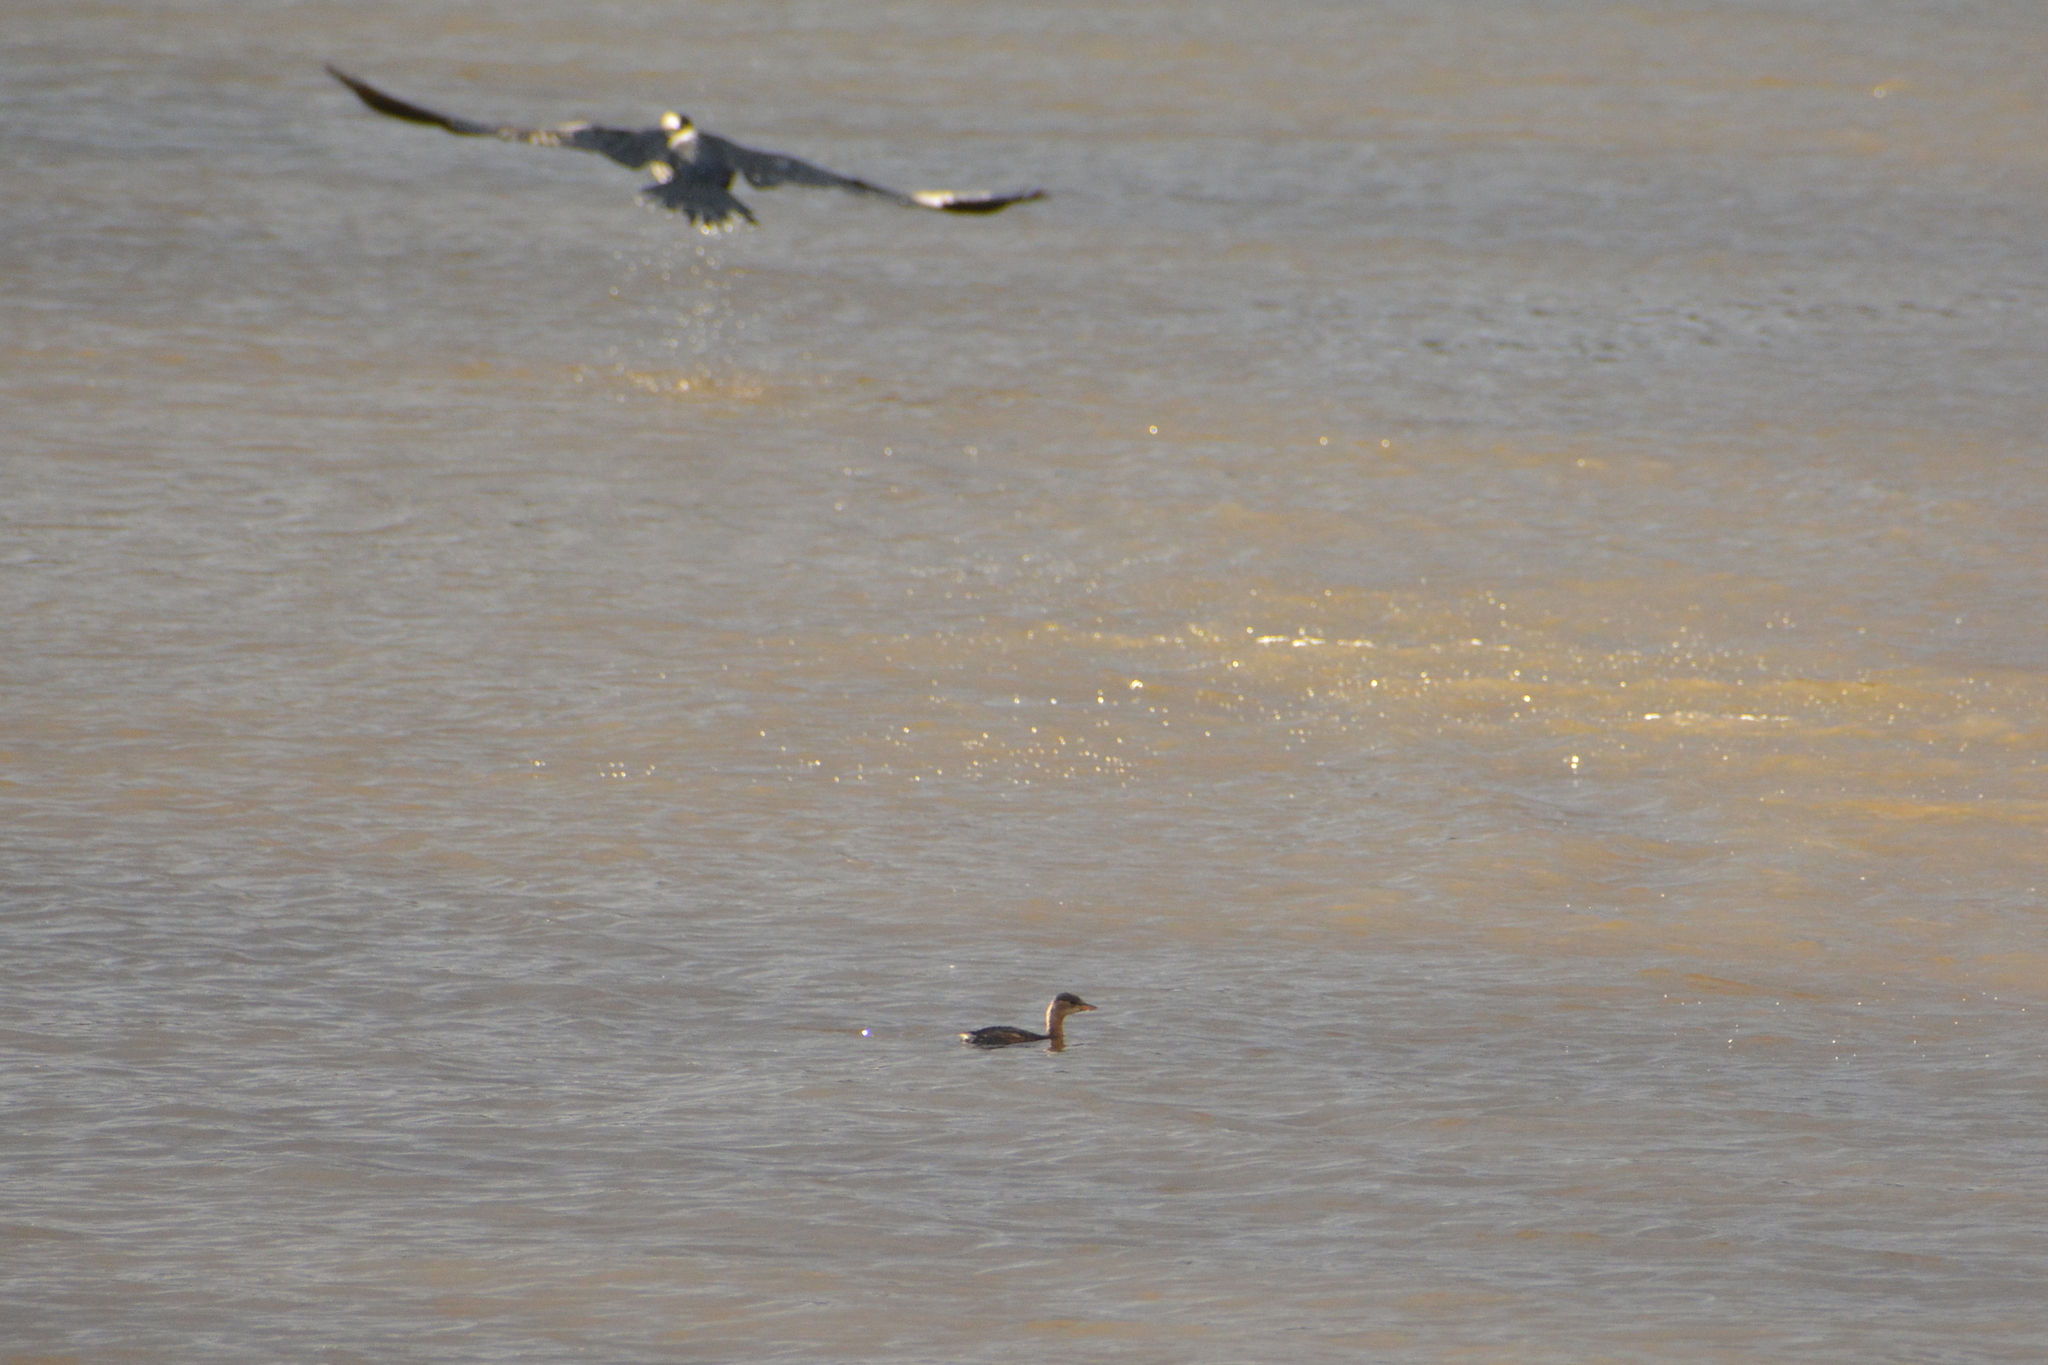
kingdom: Animalia
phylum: Chordata
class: Aves
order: Podicipediformes
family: Podicipedidae
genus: Tachybaptus
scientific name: Tachybaptus ruficollis
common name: Little grebe
